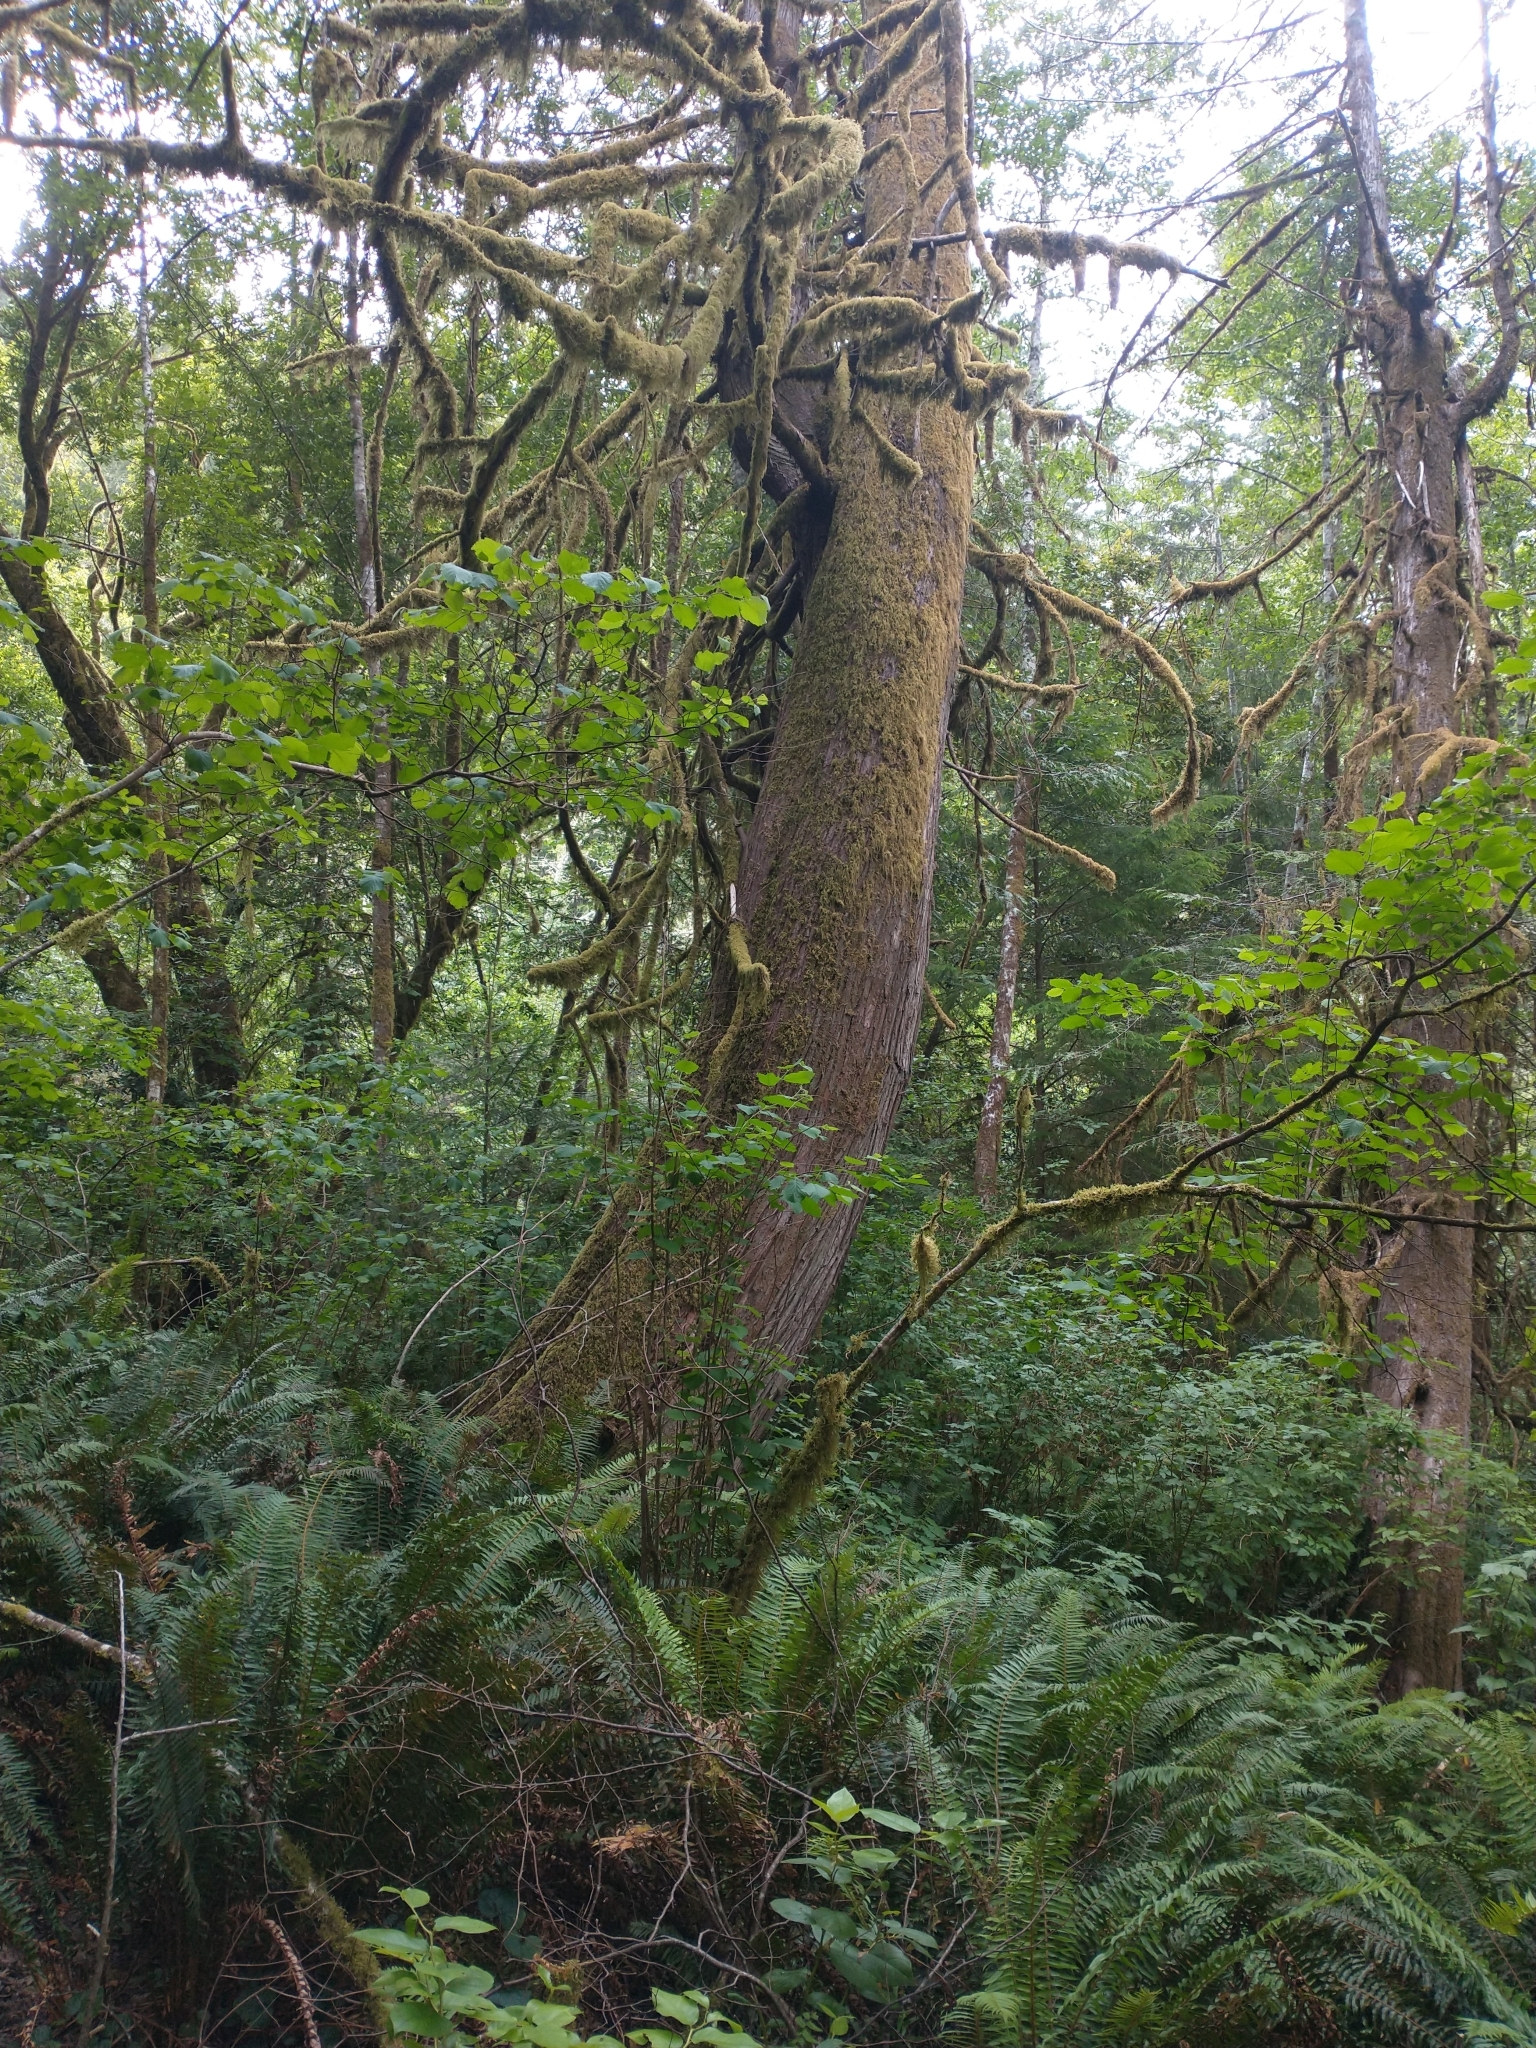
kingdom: Plantae
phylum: Tracheophyta
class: Pinopsida
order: Pinales
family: Cupressaceae
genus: Thuja
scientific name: Thuja plicata
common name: Western red-cedar
